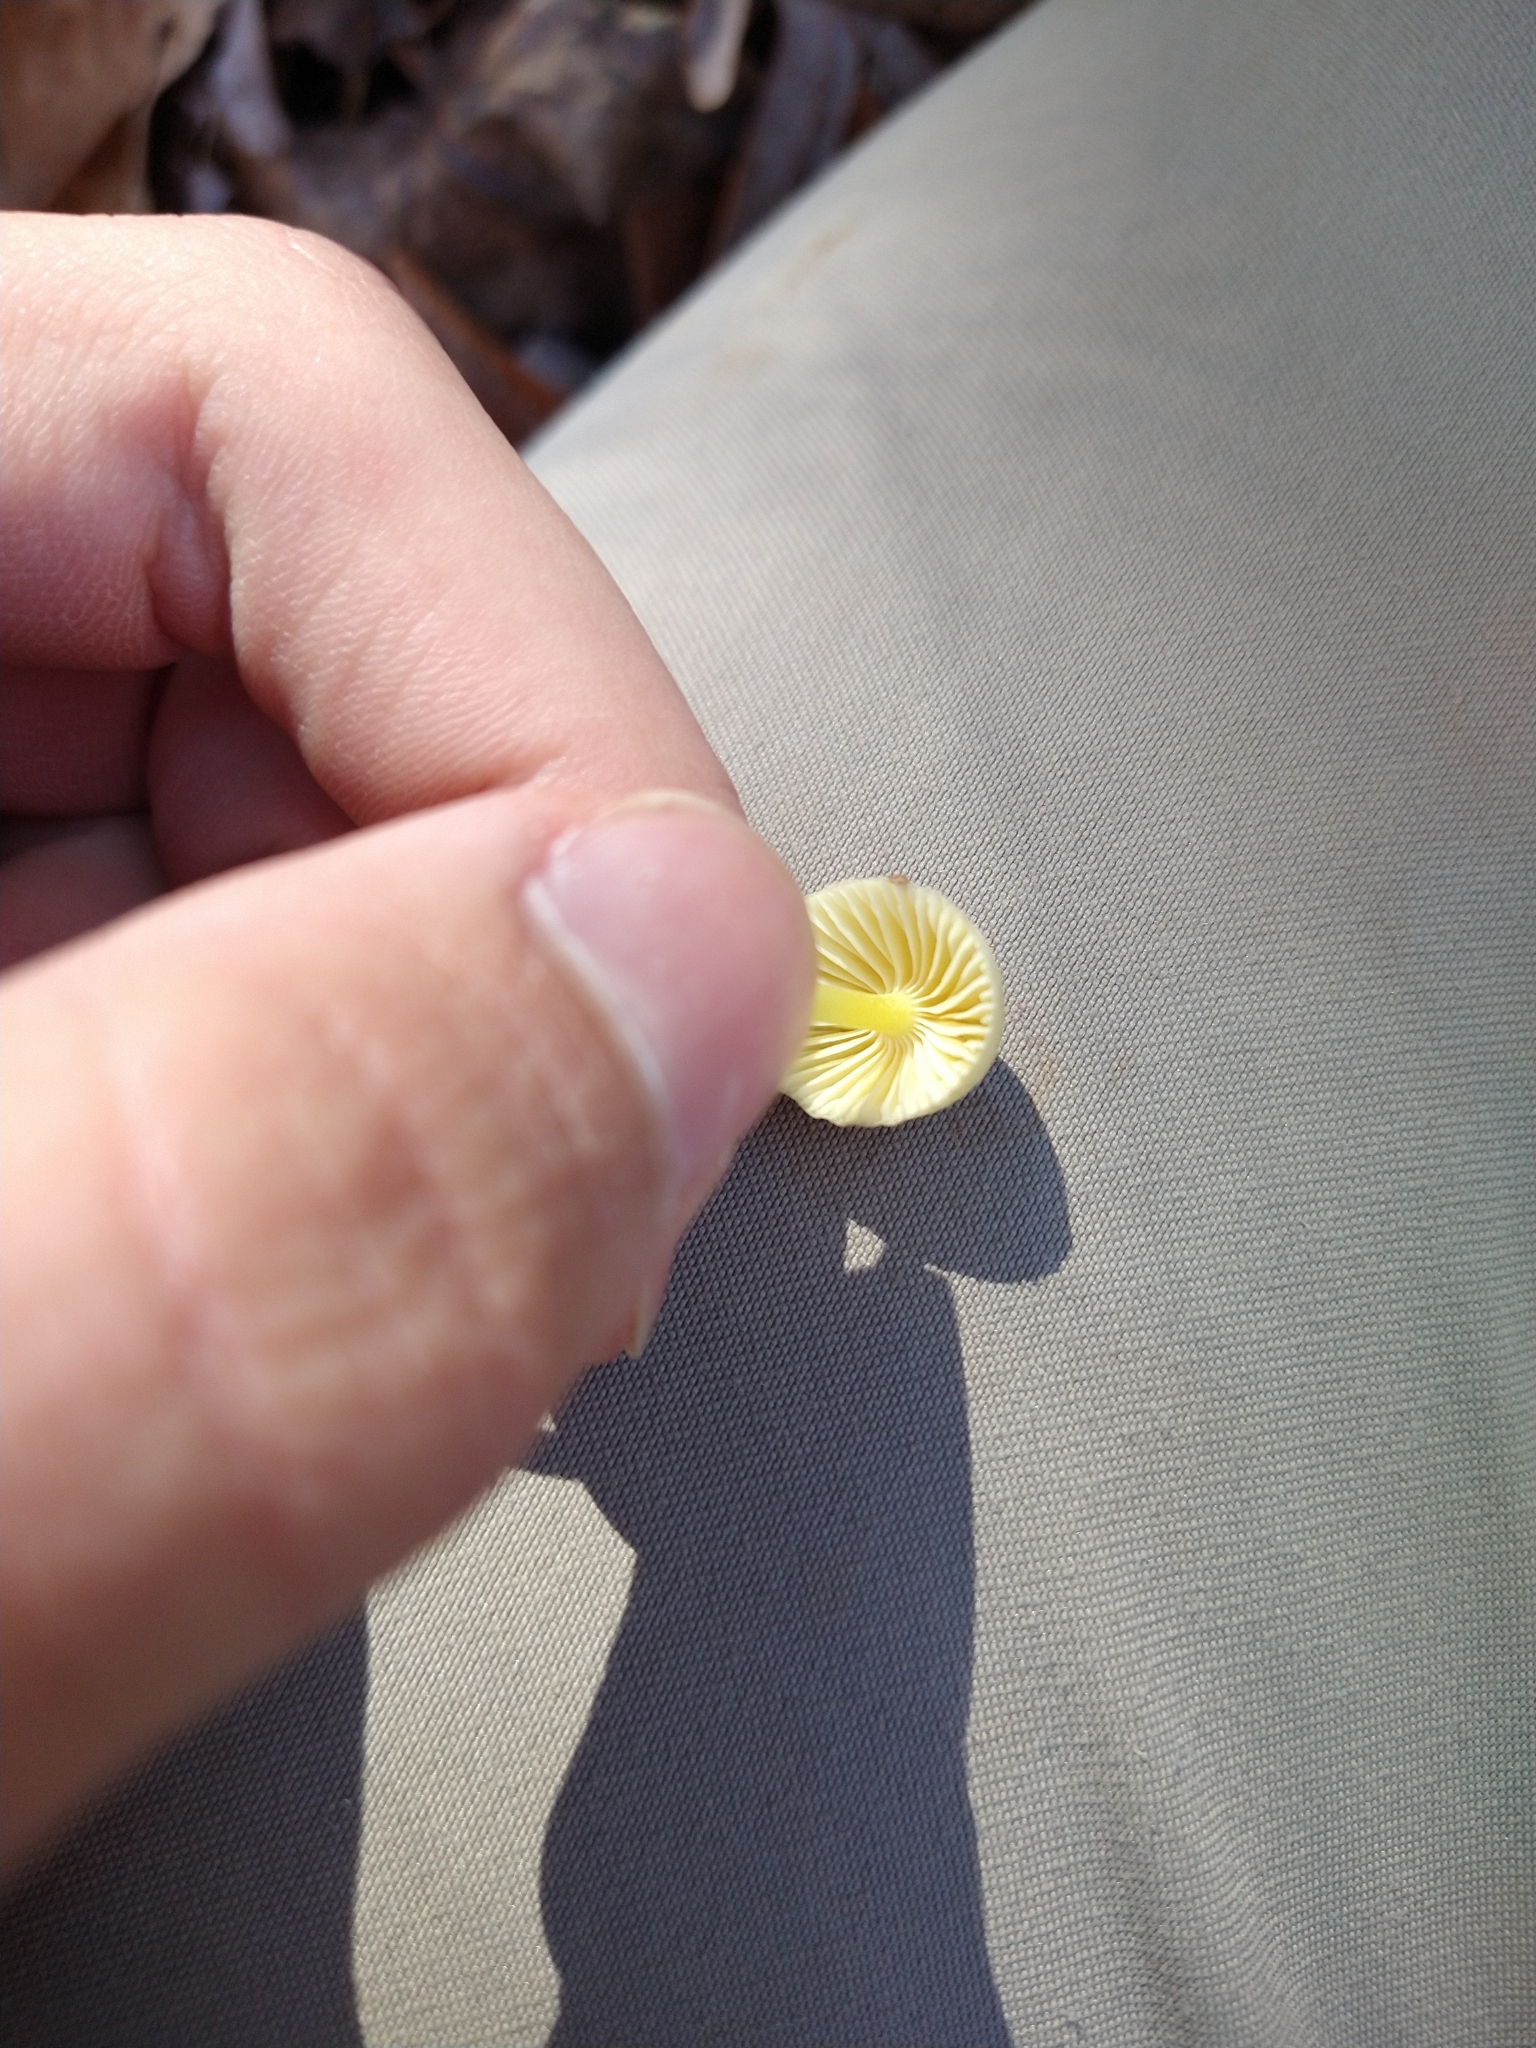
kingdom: Fungi
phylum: Basidiomycota
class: Agaricomycetes
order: Agaricales
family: Mycenaceae
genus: Mycena
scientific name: Mycena epipterygia
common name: Yellowleg bonnet
